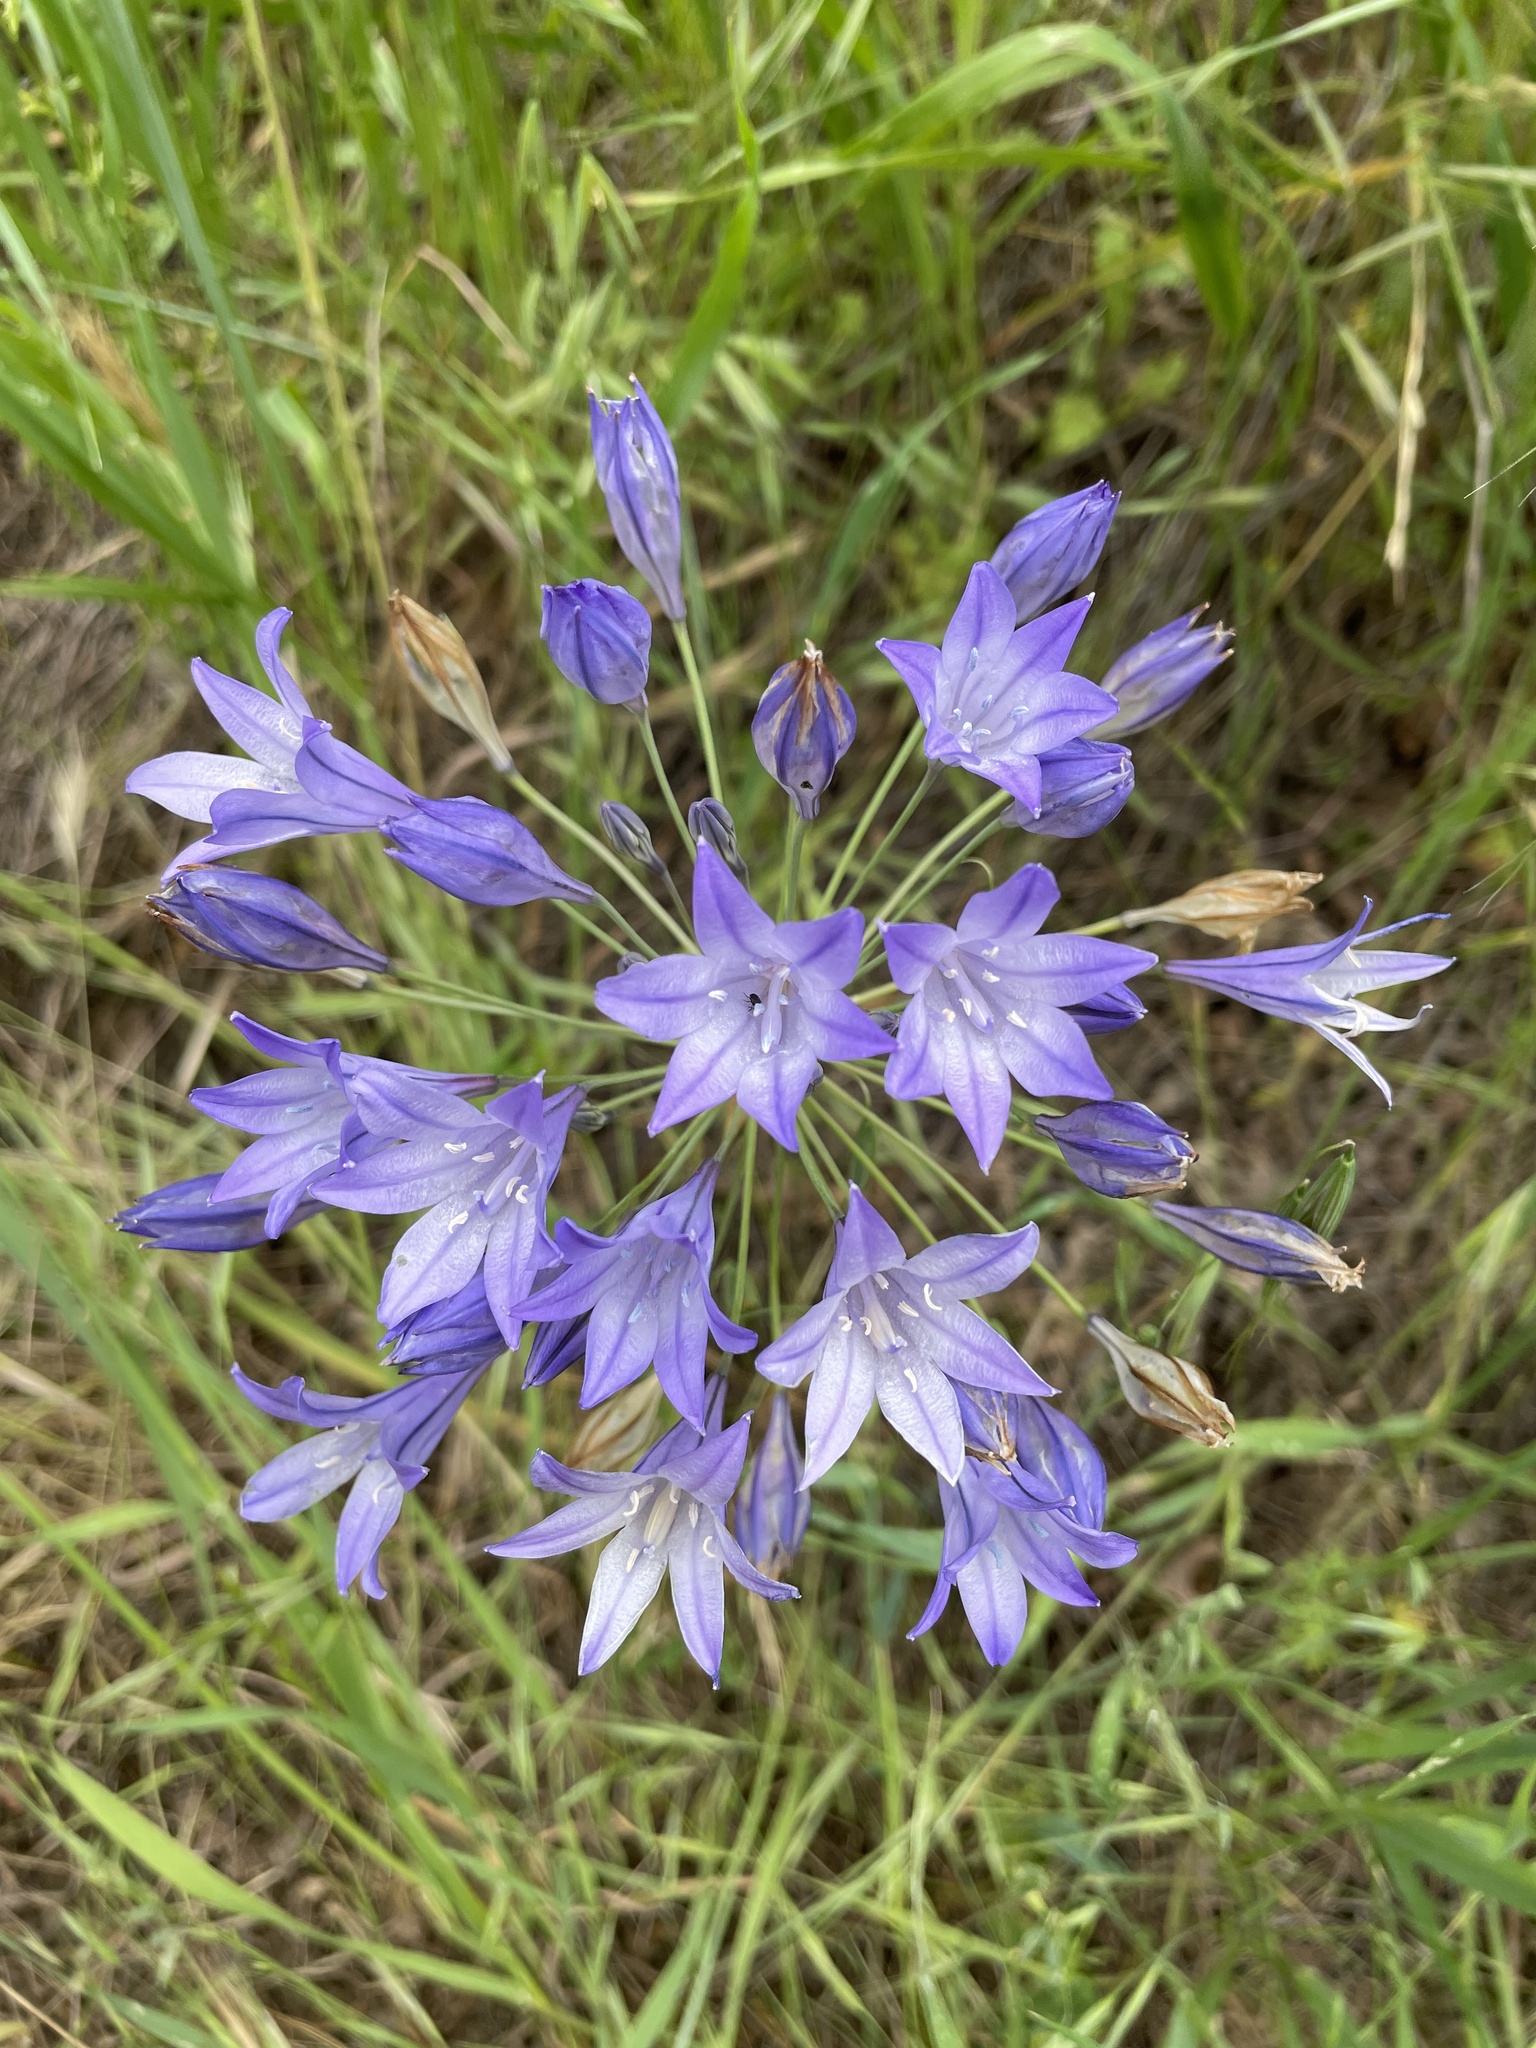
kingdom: Plantae
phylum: Tracheophyta
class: Liliopsida
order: Asparagales
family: Asparagaceae
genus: Triteleia
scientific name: Triteleia laxa
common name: Triplet-lily
